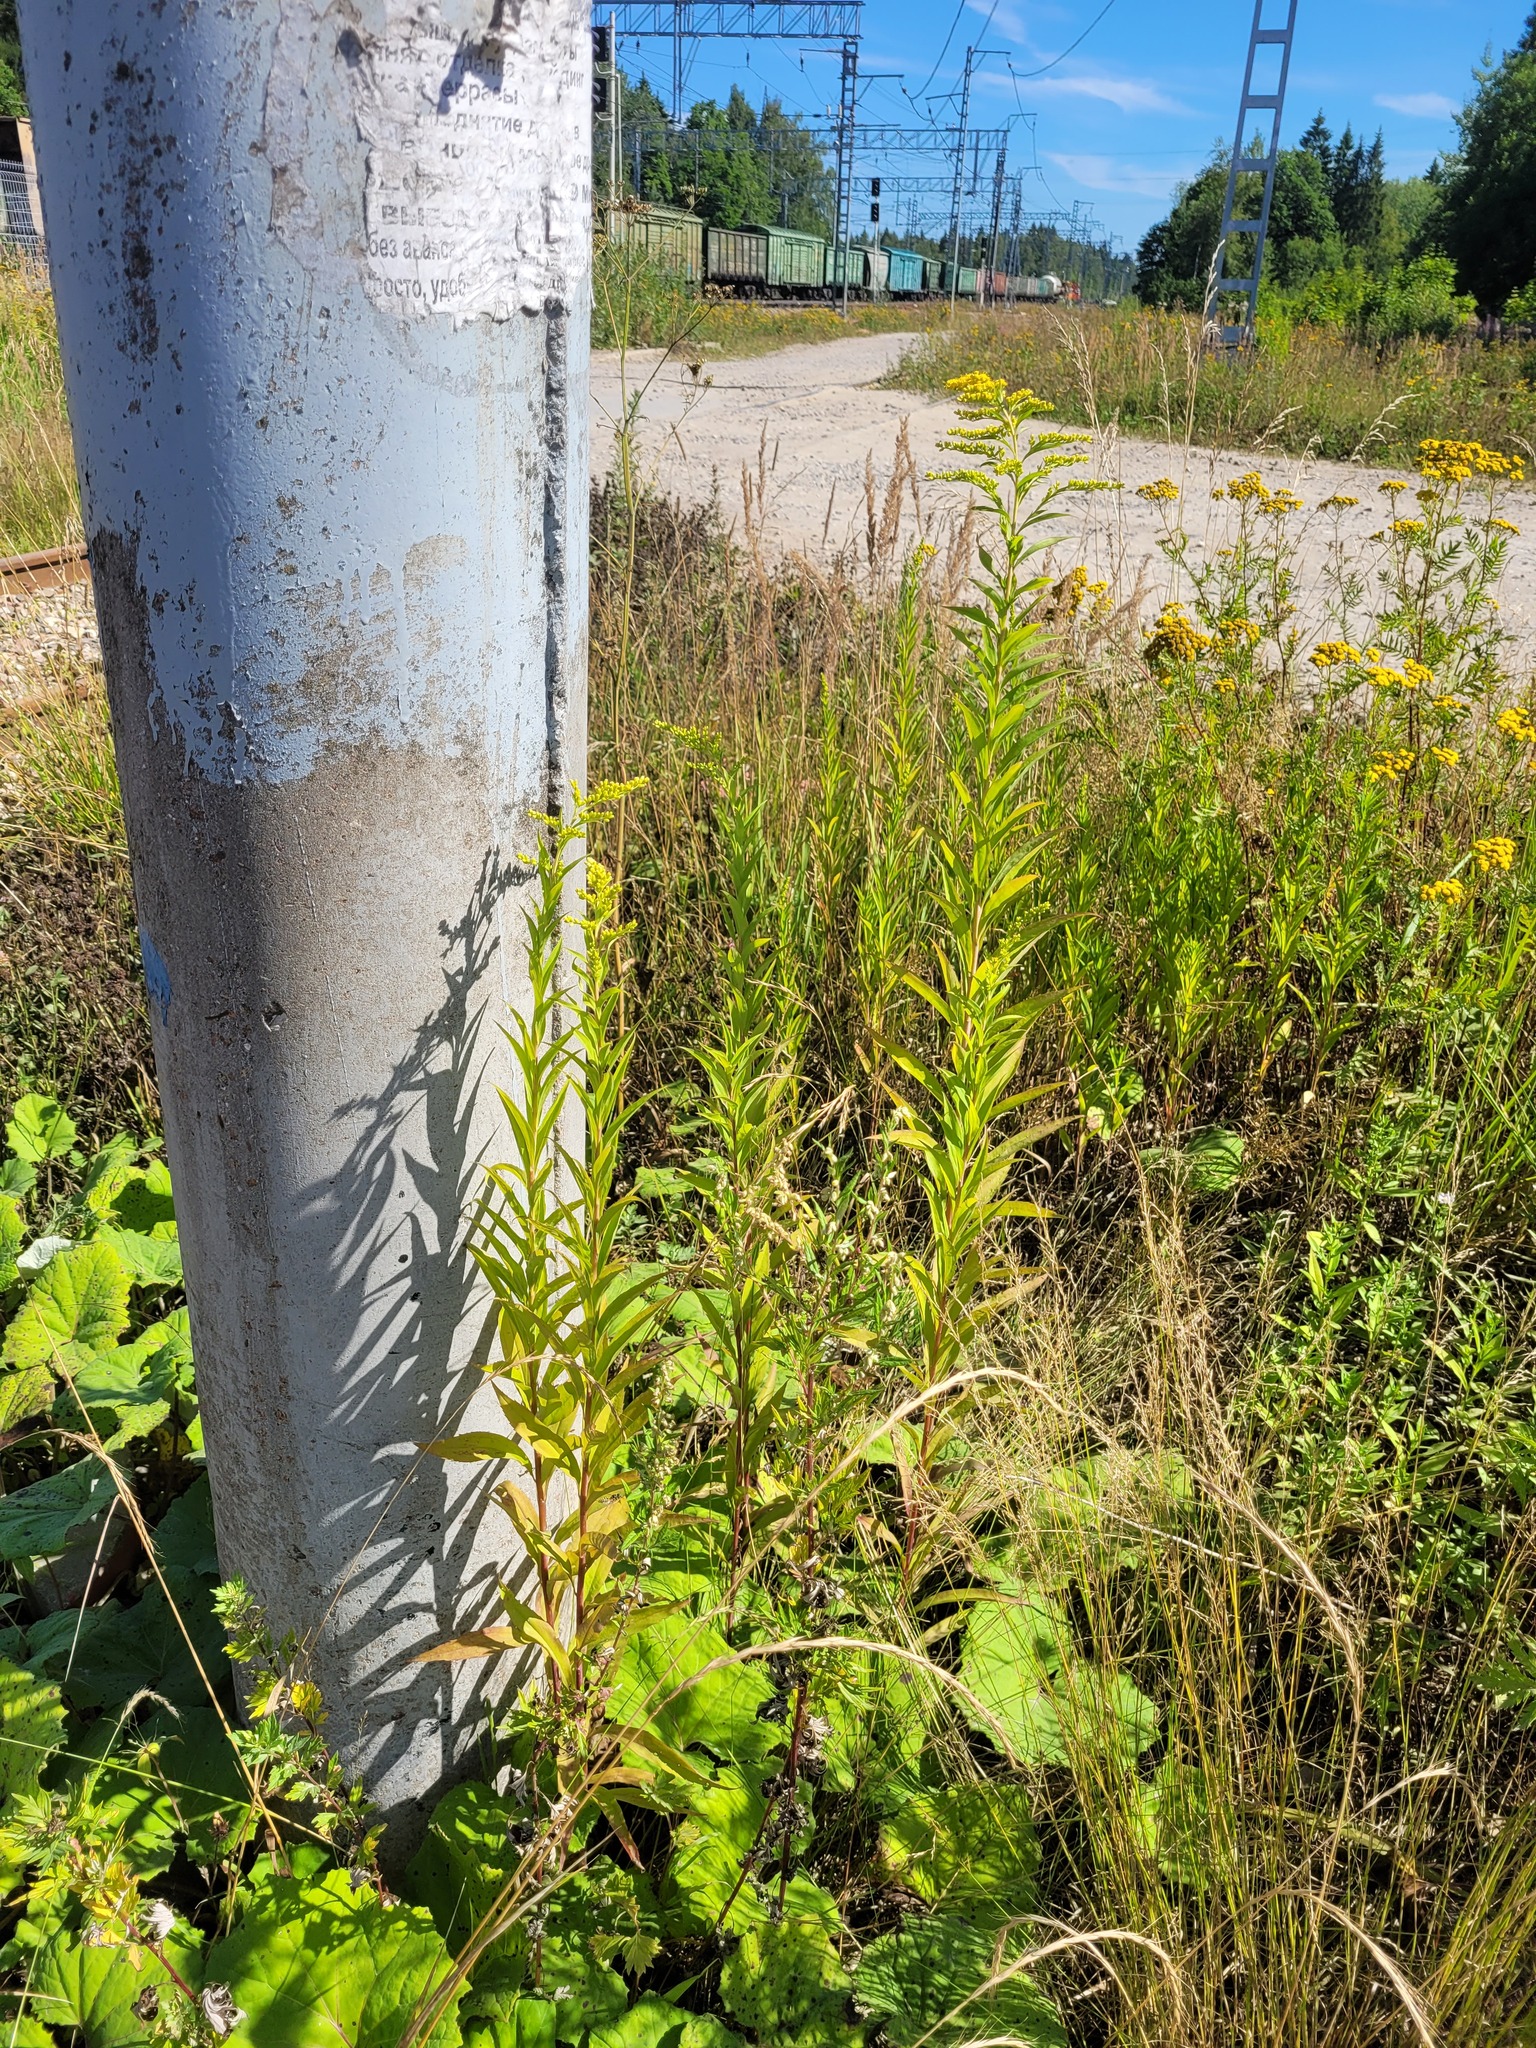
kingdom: Plantae
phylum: Tracheophyta
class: Magnoliopsida
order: Asterales
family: Asteraceae
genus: Solidago
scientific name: Solidago gigantea
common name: Giant goldenrod
